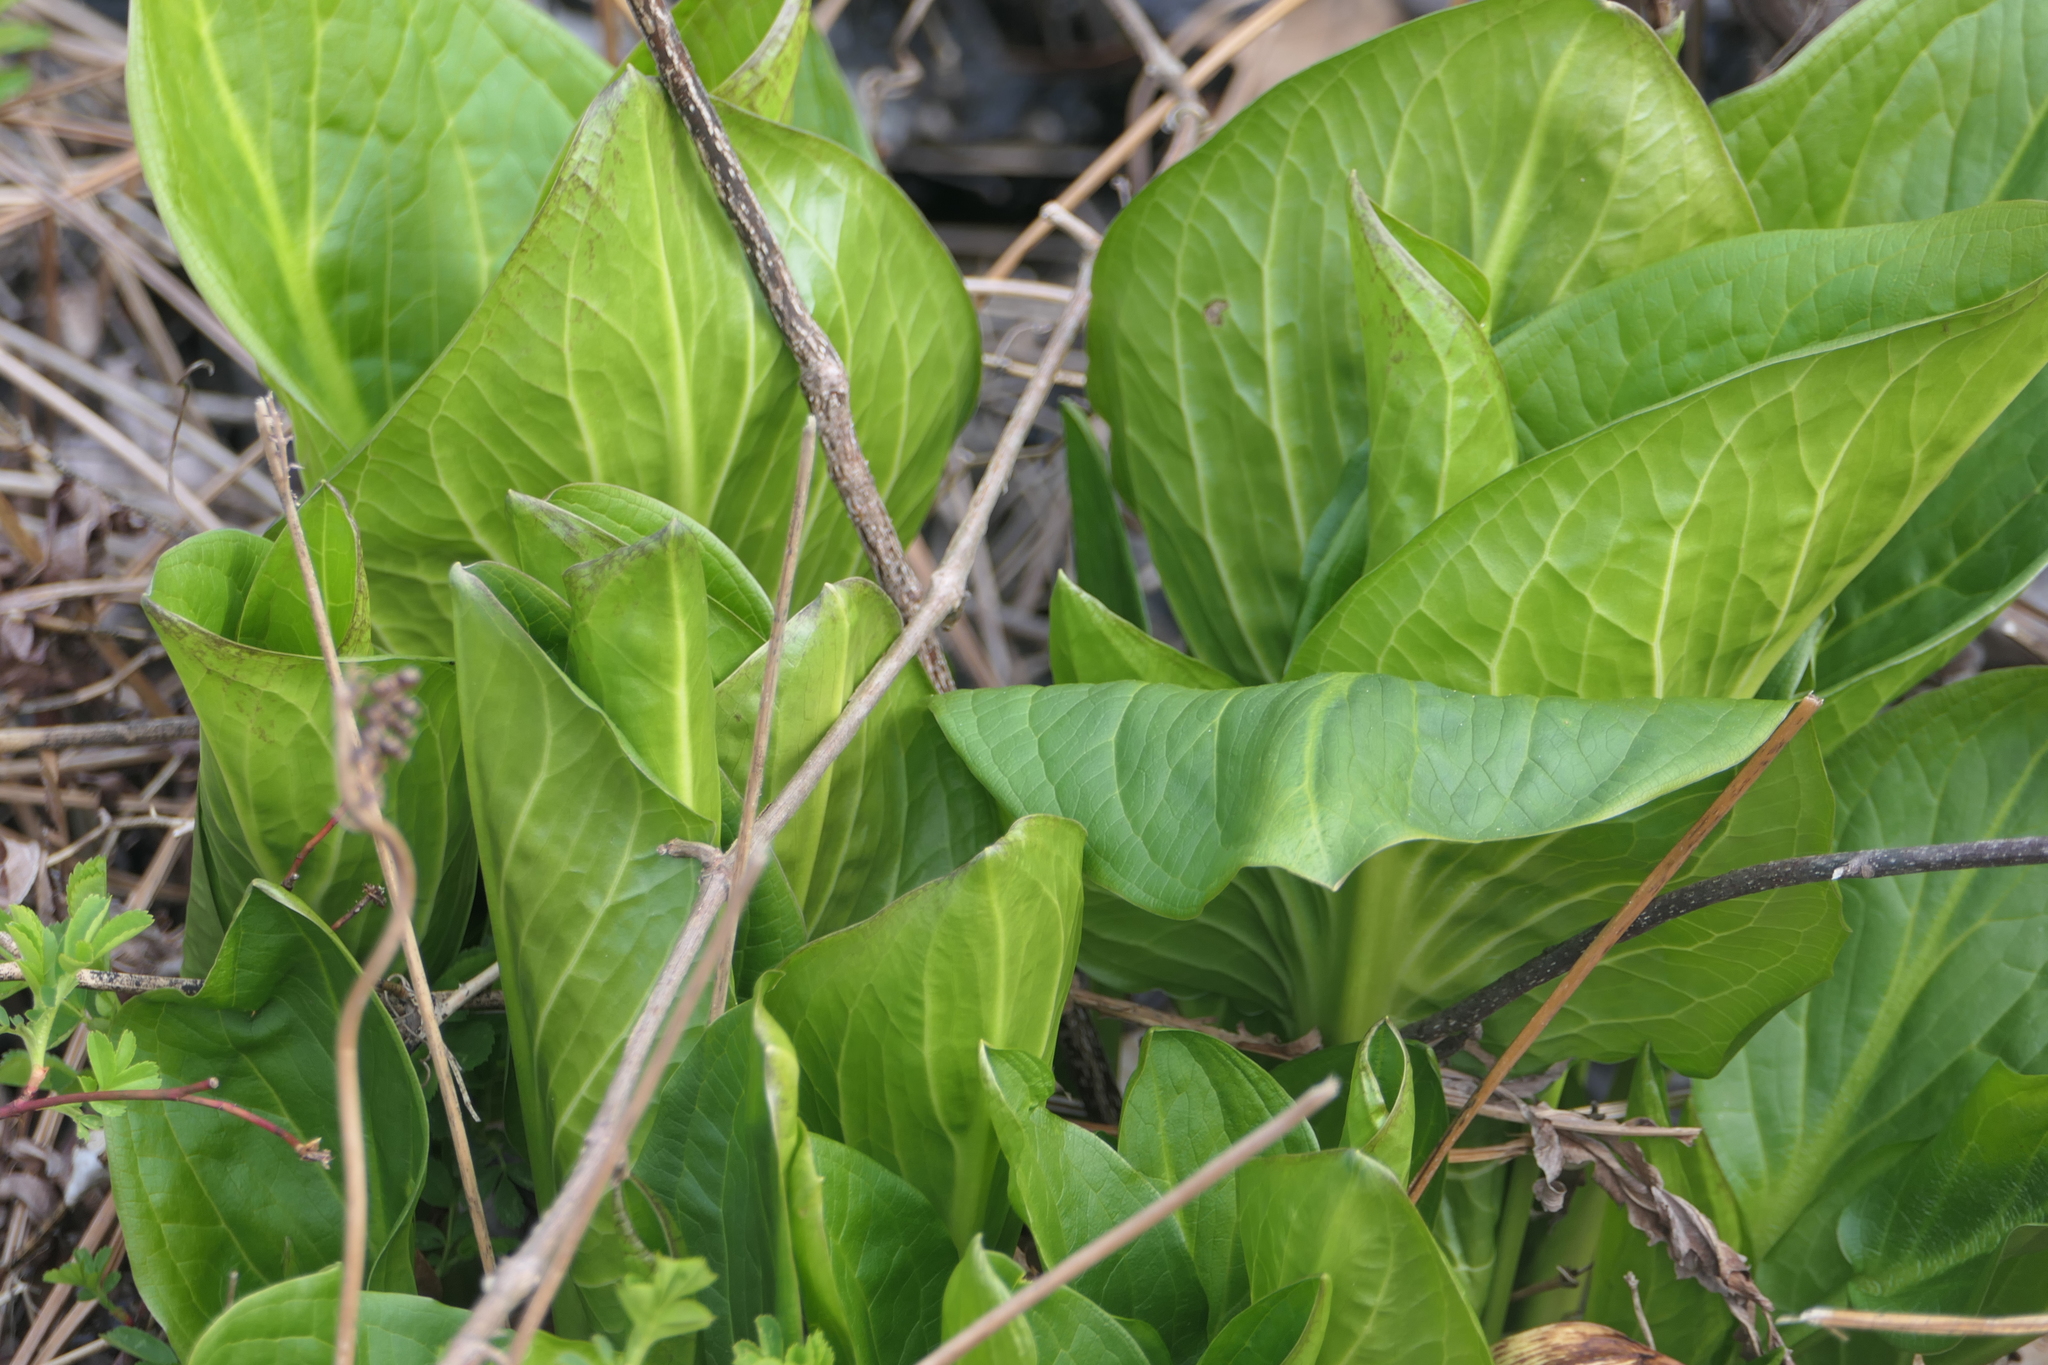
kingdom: Plantae
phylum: Tracheophyta
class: Liliopsida
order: Alismatales
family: Araceae
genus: Symplocarpus
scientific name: Symplocarpus foetidus
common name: Eastern skunk cabbage
